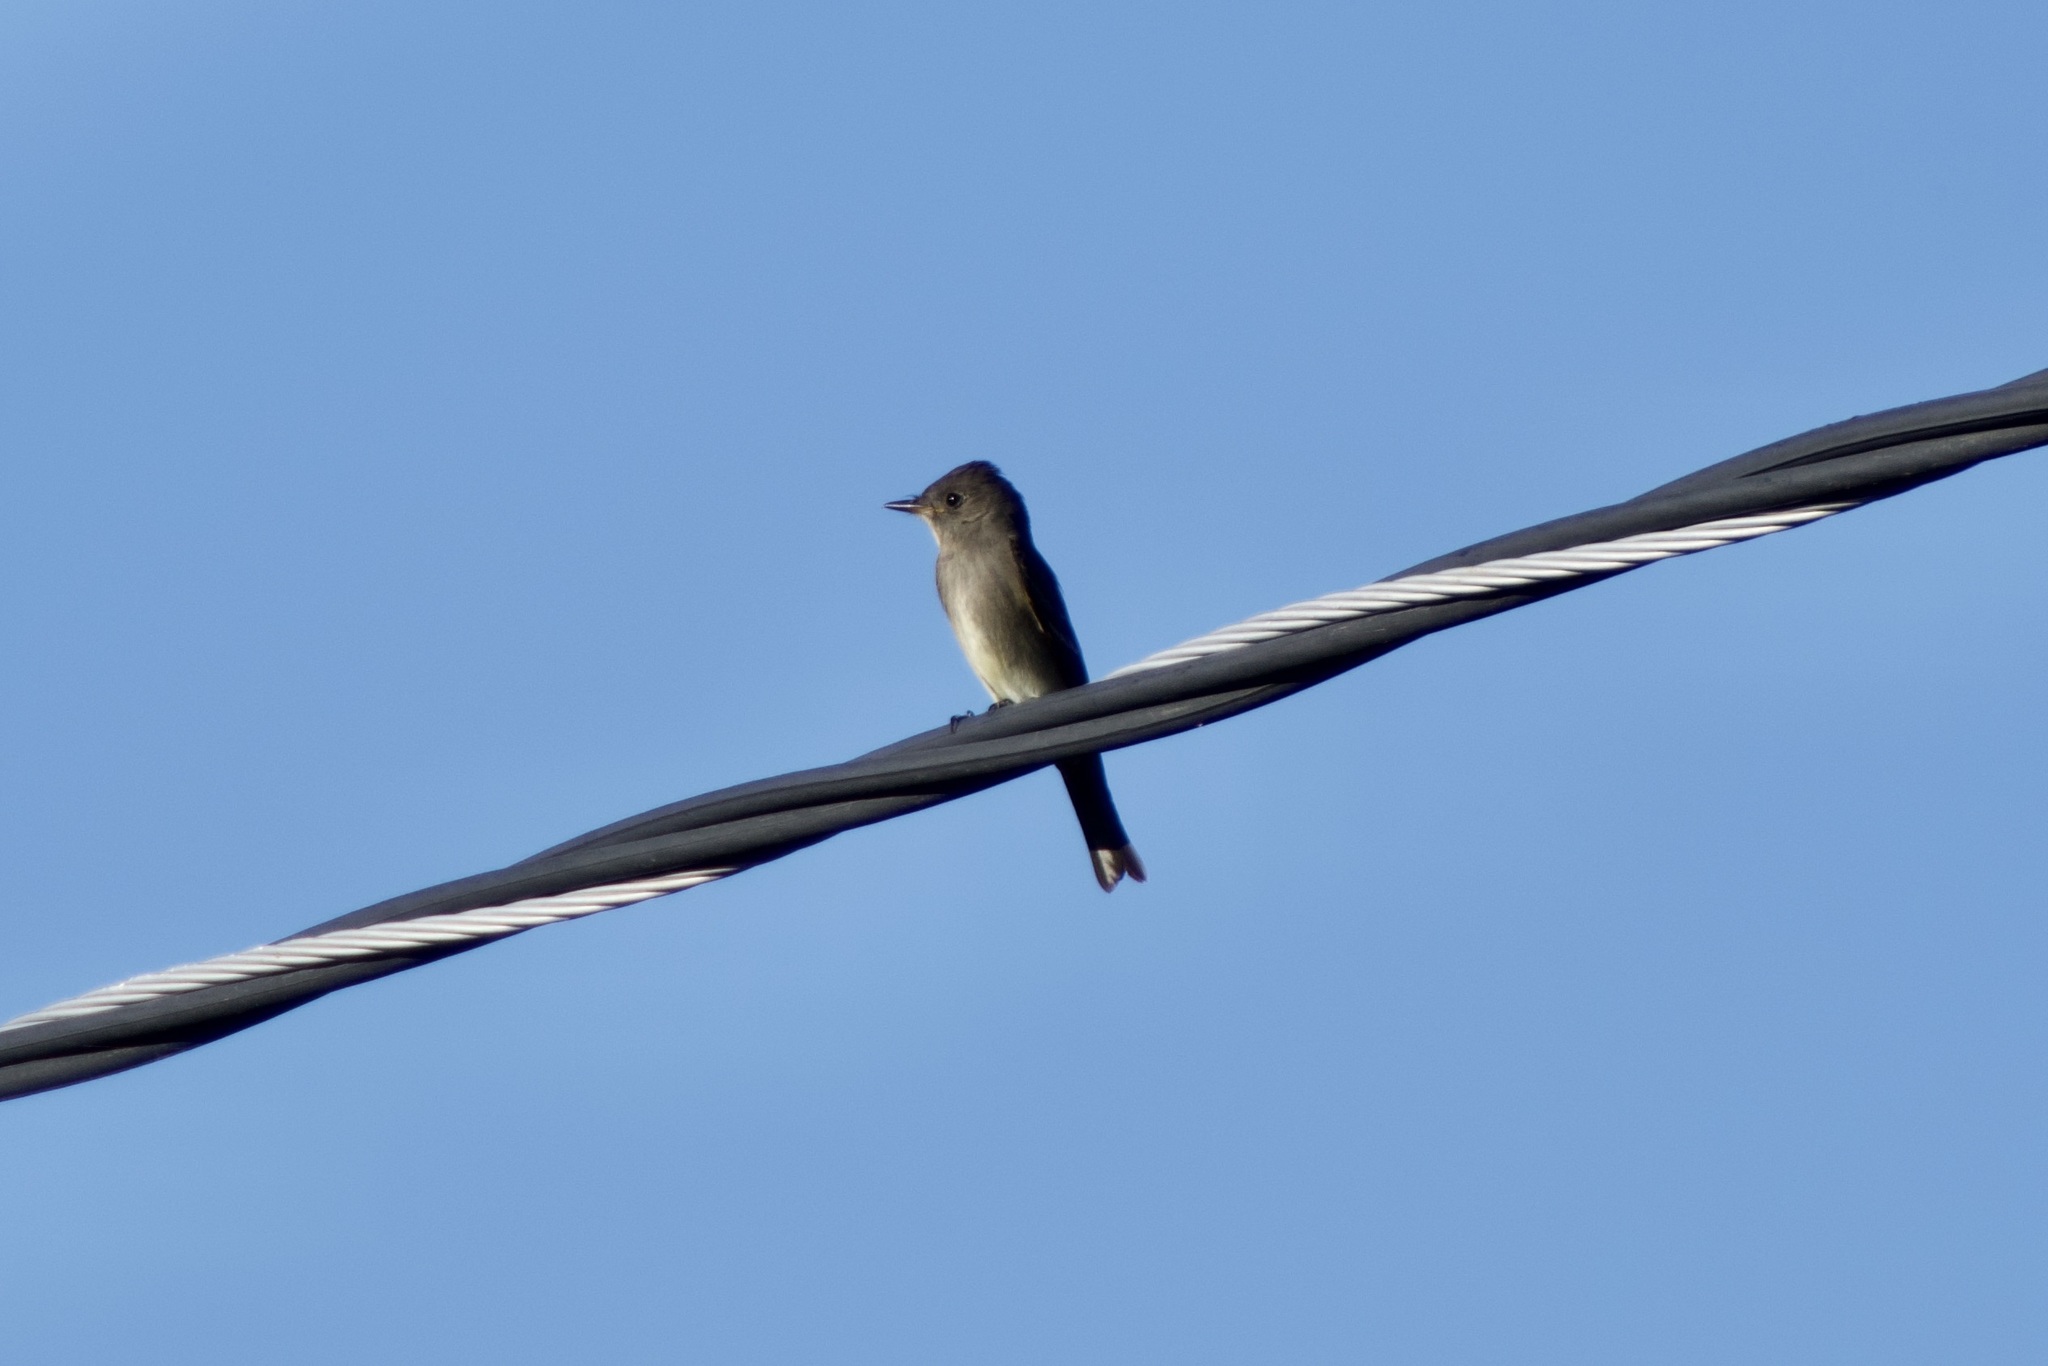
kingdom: Animalia
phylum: Chordata
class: Aves
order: Passeriformes
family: Tyrannidae
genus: Contopus
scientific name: Contopus sordidulus
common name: Western wood-pewee
